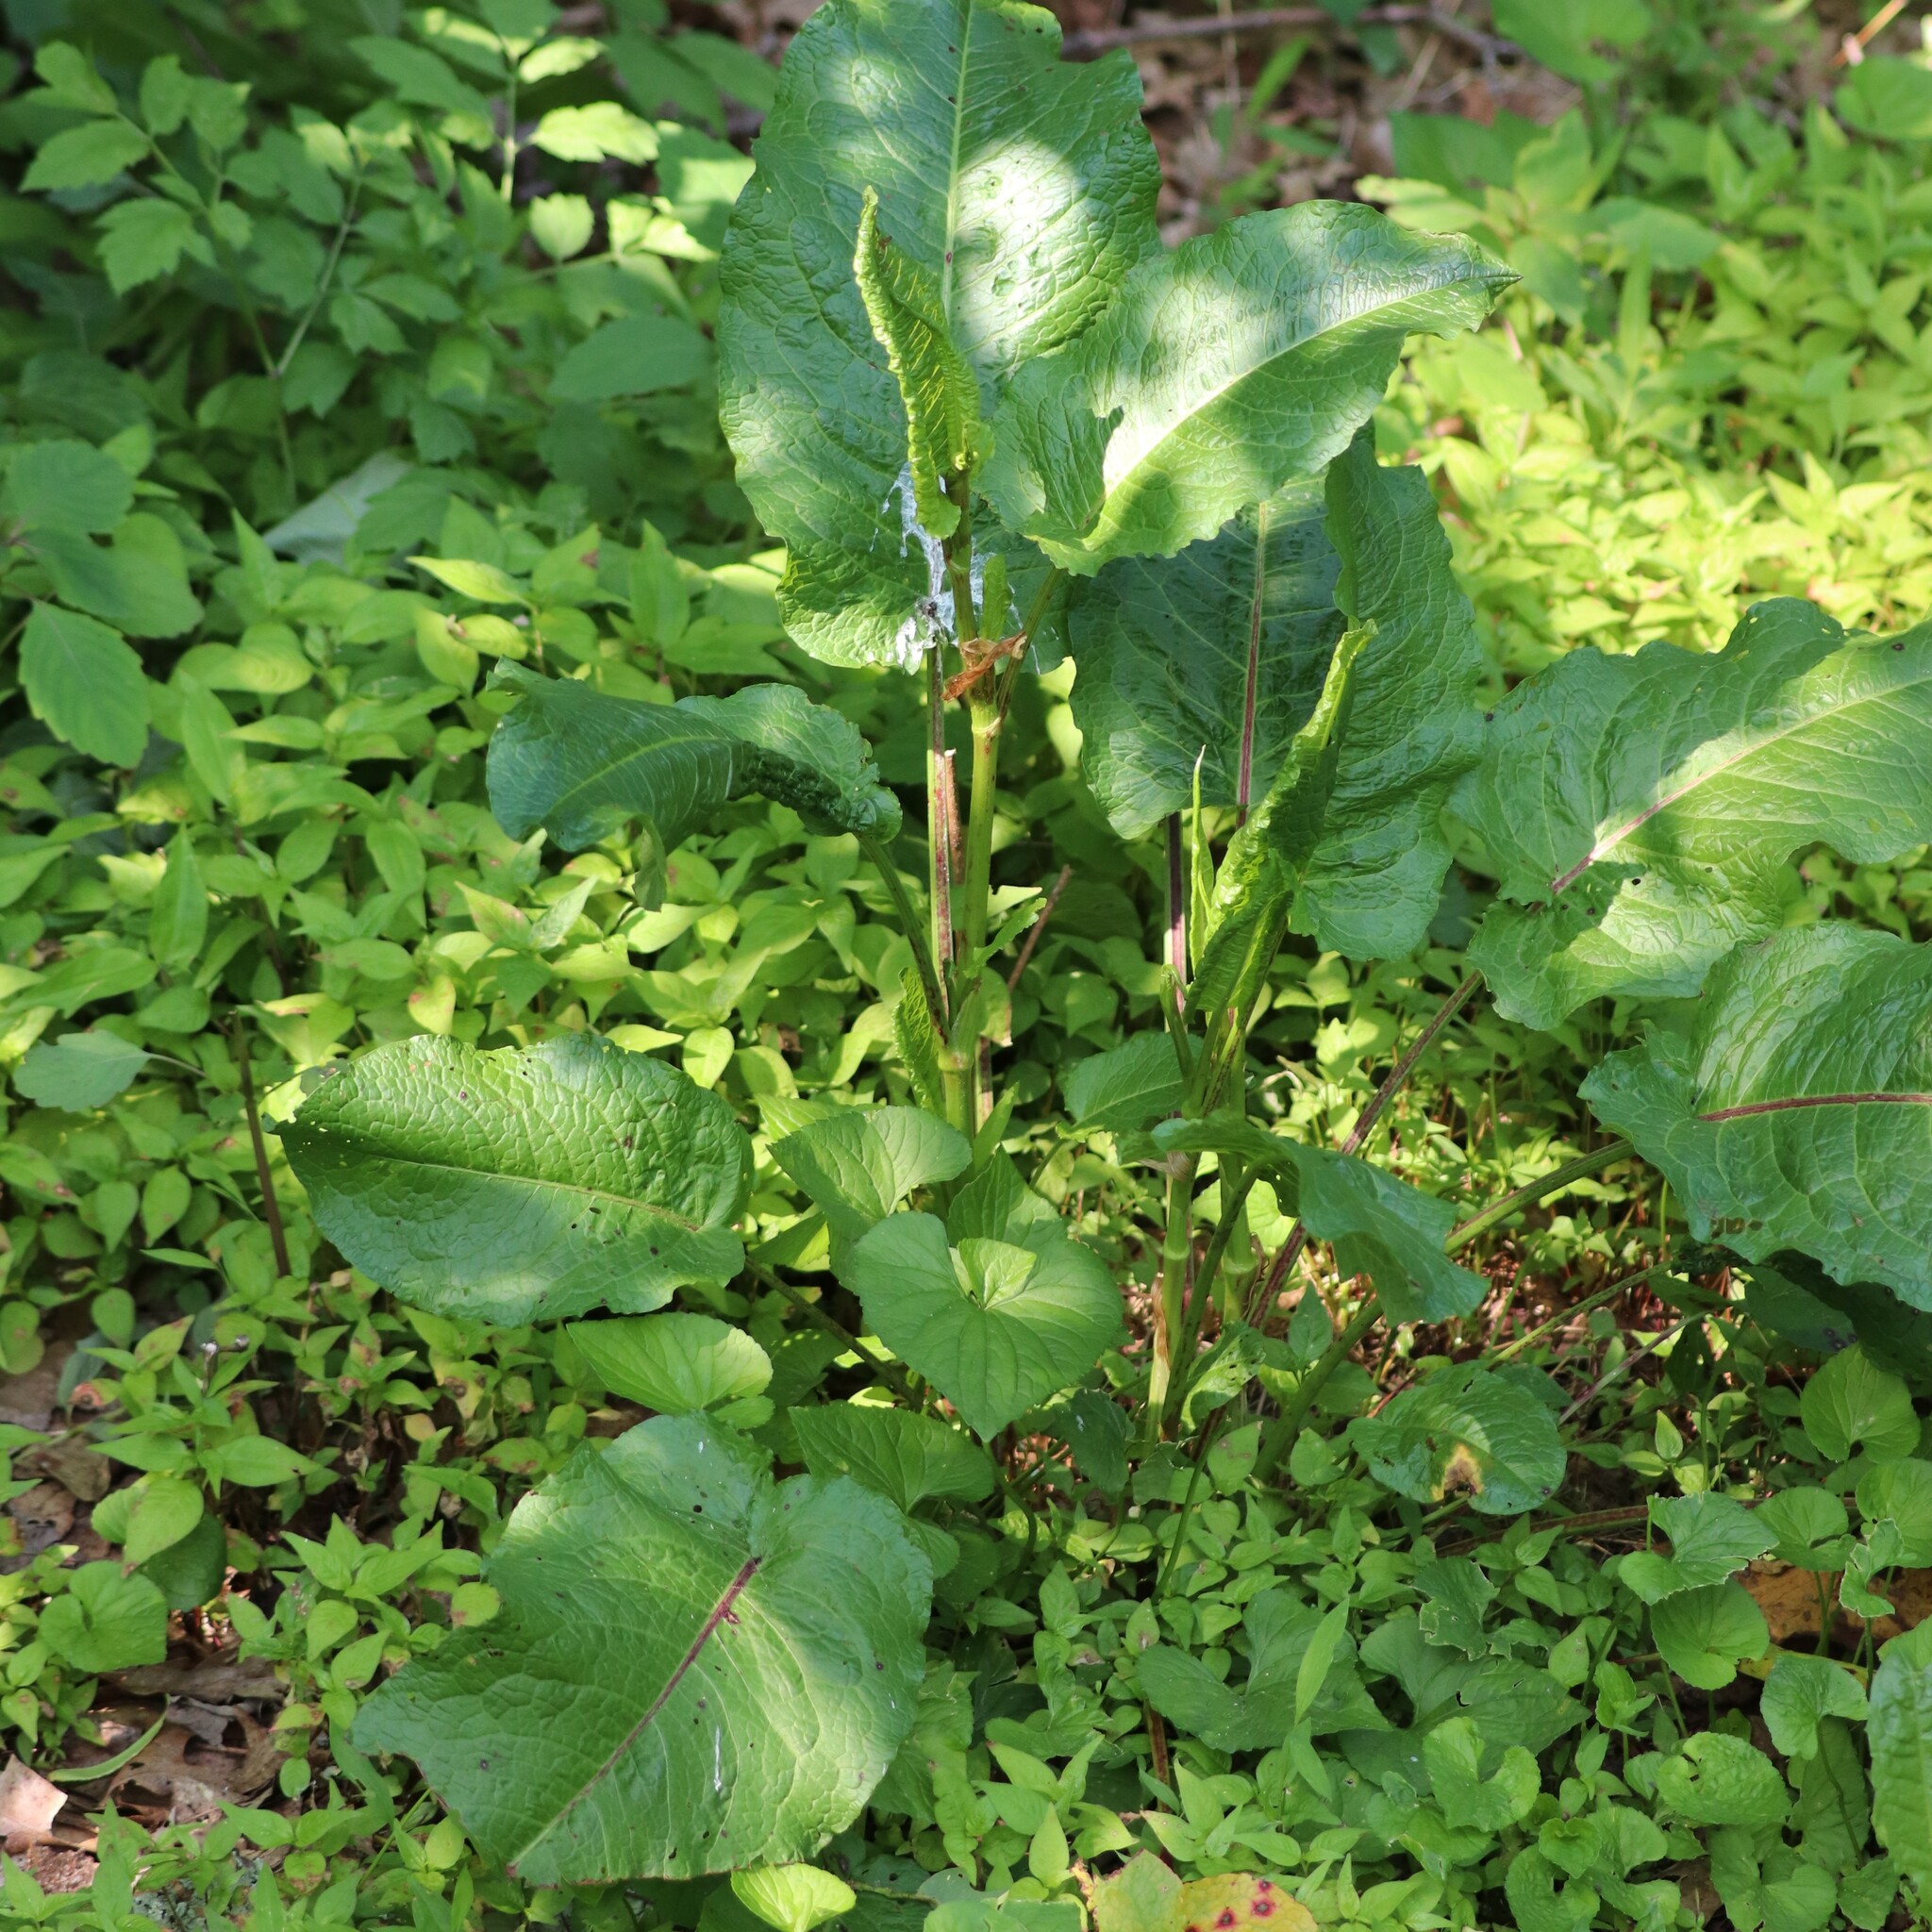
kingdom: Plantae
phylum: Tracheophyta
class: Magnoliopsida
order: Caryophyllales
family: Polygonaceae
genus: Rumex
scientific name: Rumex obtusifolius
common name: Bitter dock
